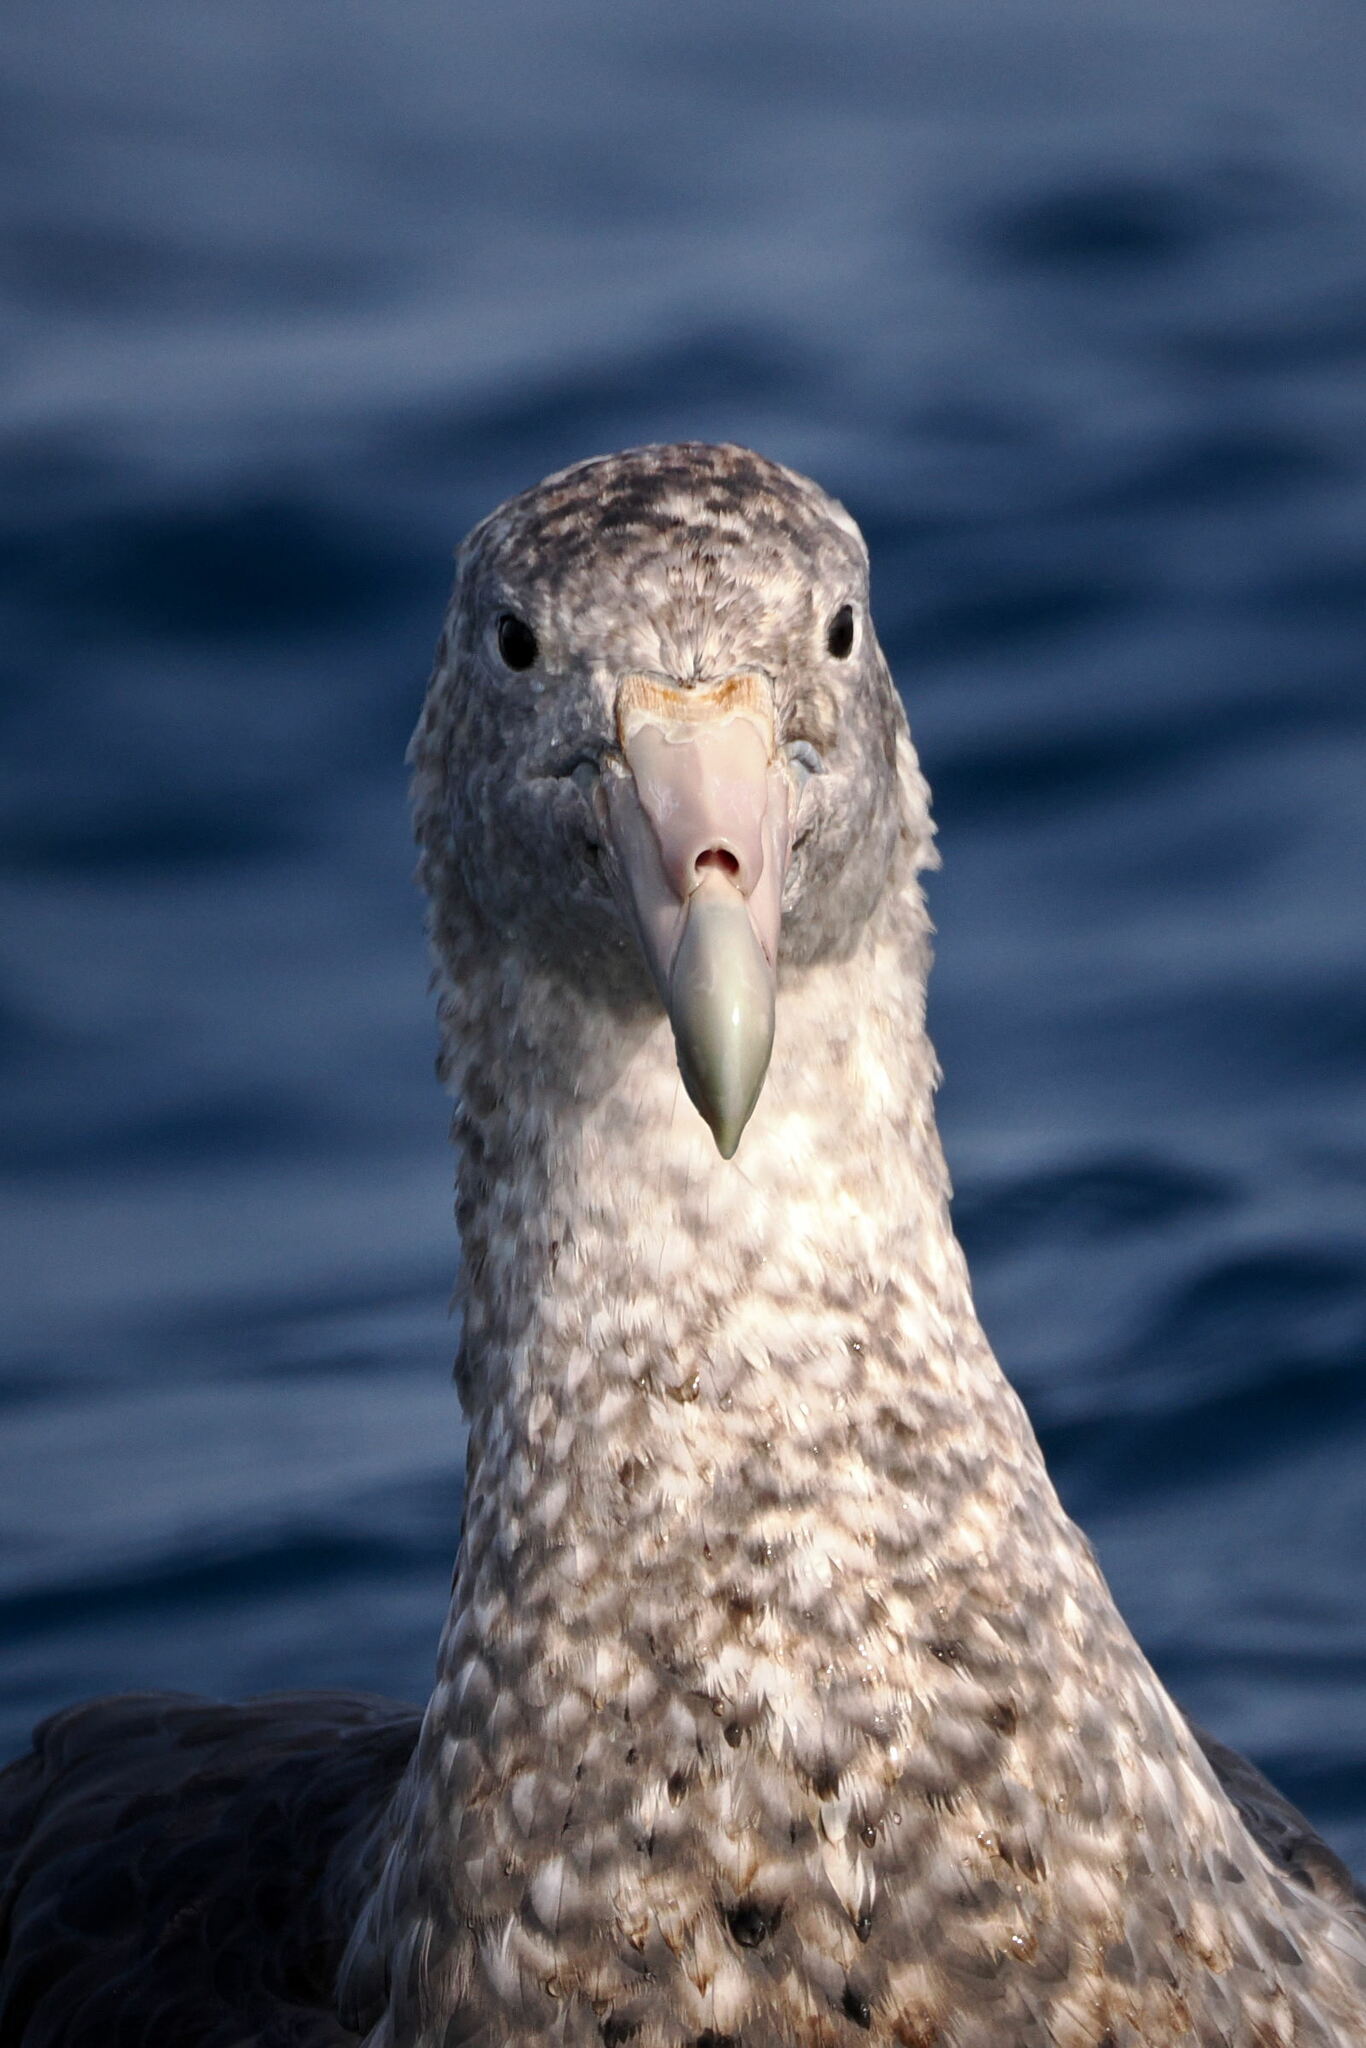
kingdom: Animalia
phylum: Chordata
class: Aves
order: Procellariiformes
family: Procellariidae
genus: Macronectes
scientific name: Macronectes giganteus
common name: Southern giant petrel
